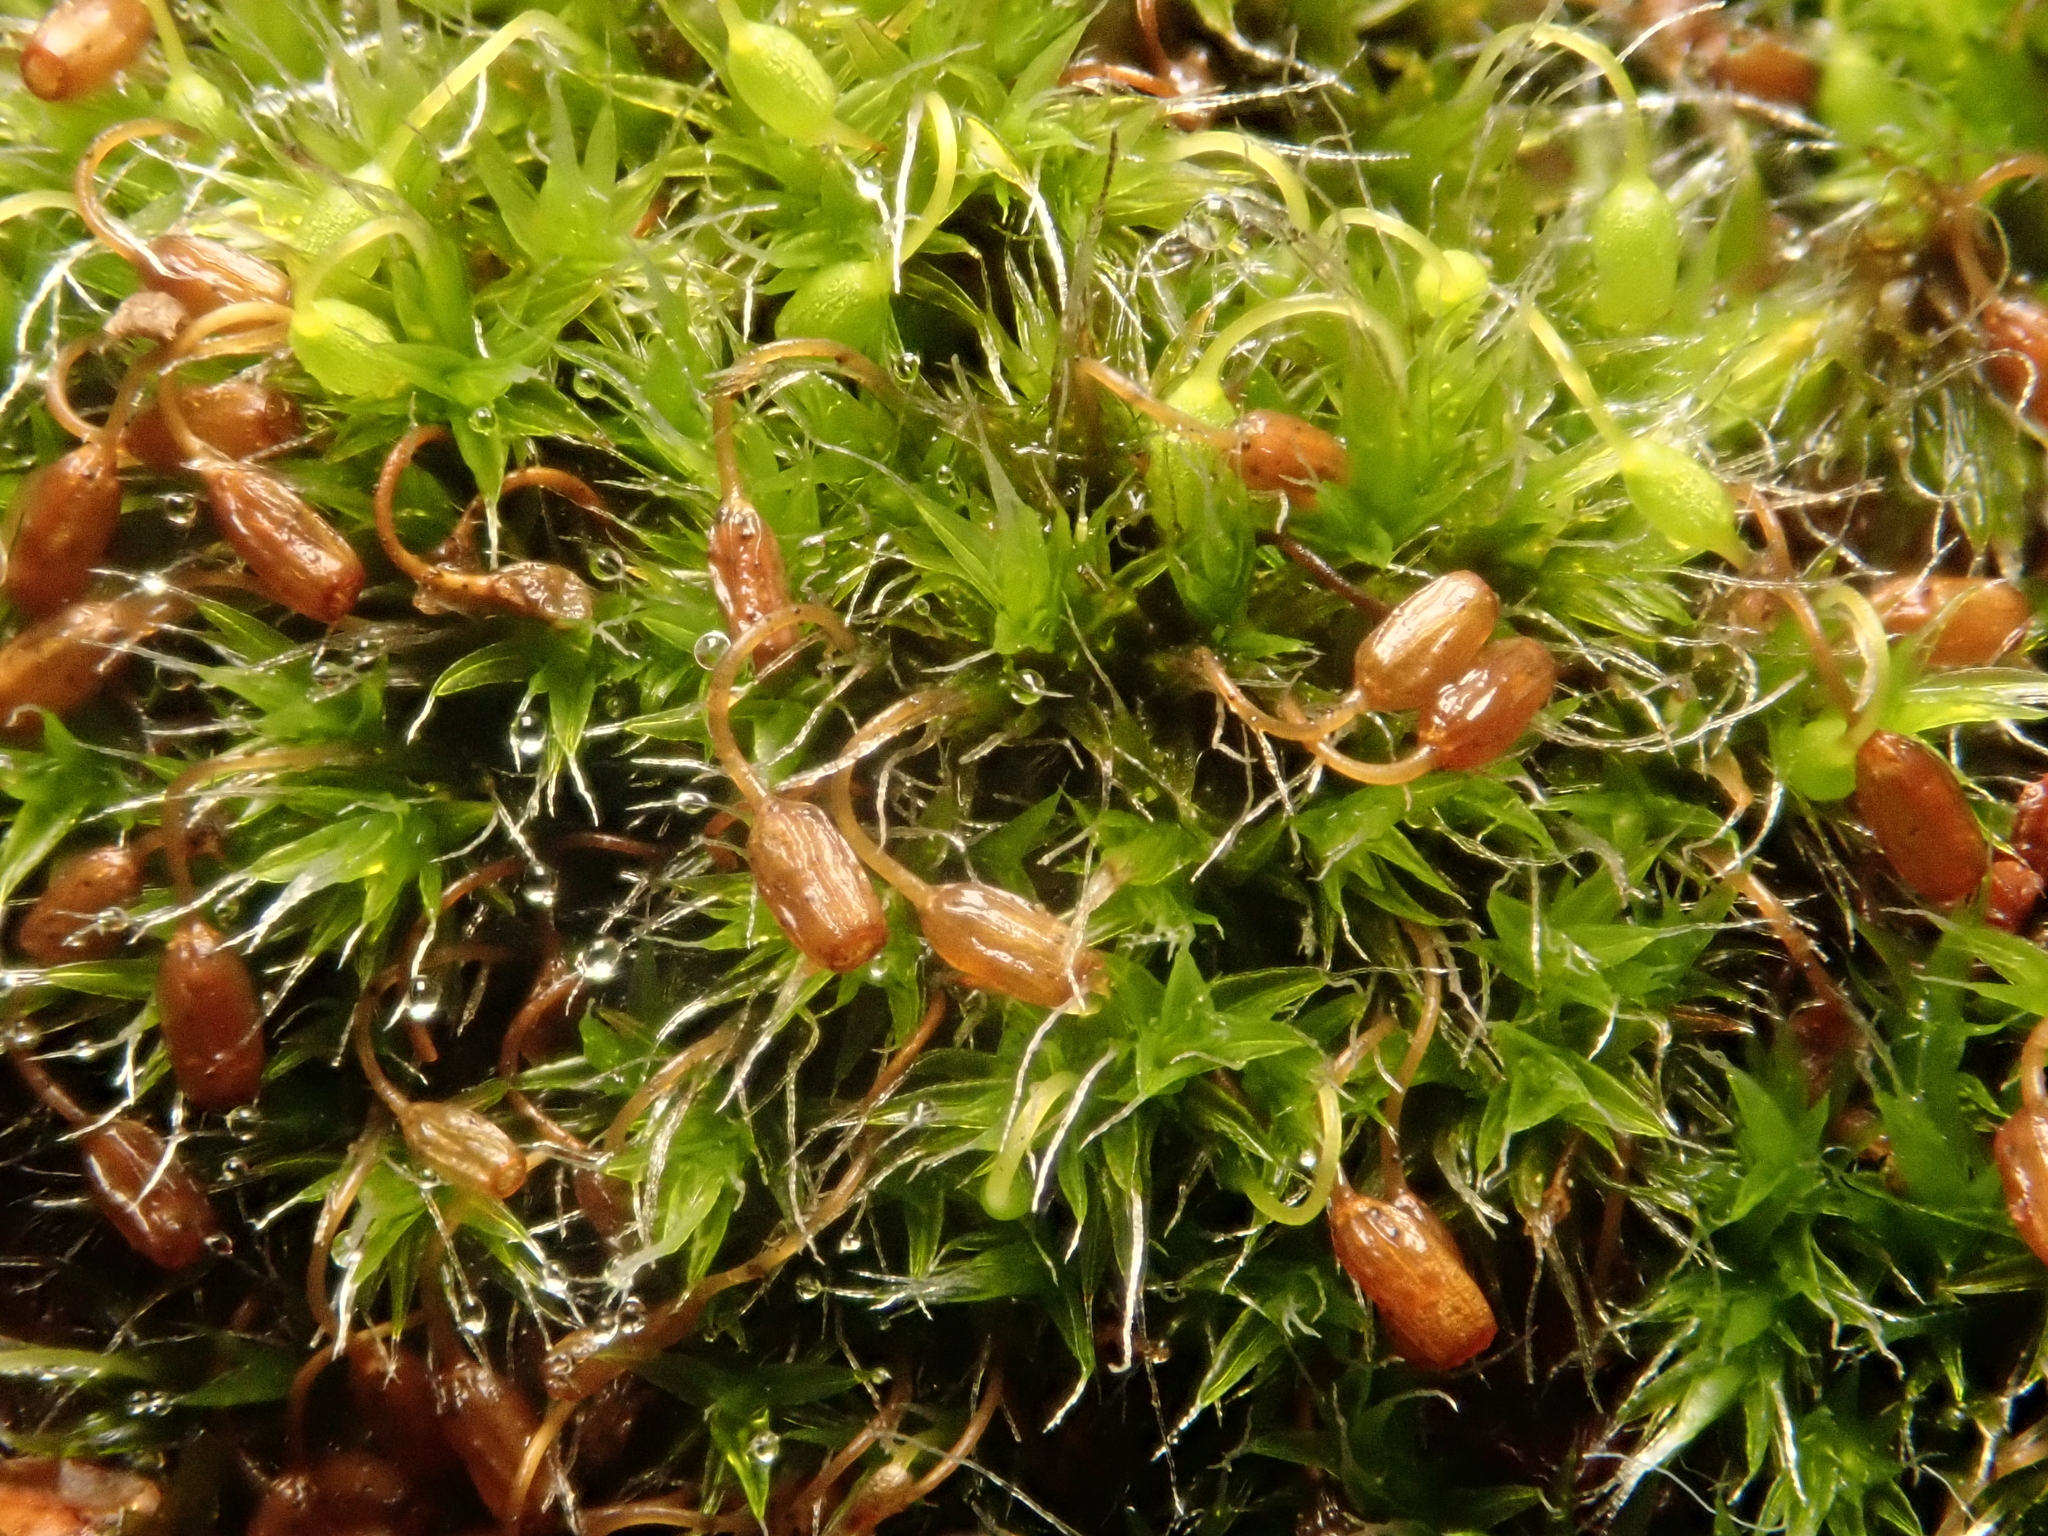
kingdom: Plantae
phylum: Bryophyta
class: Bryopsida
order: Grimmiales
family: Grimmiaceae
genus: Grimmia
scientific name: Grimmia pulvinata
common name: Grey-cushioned grimmia
